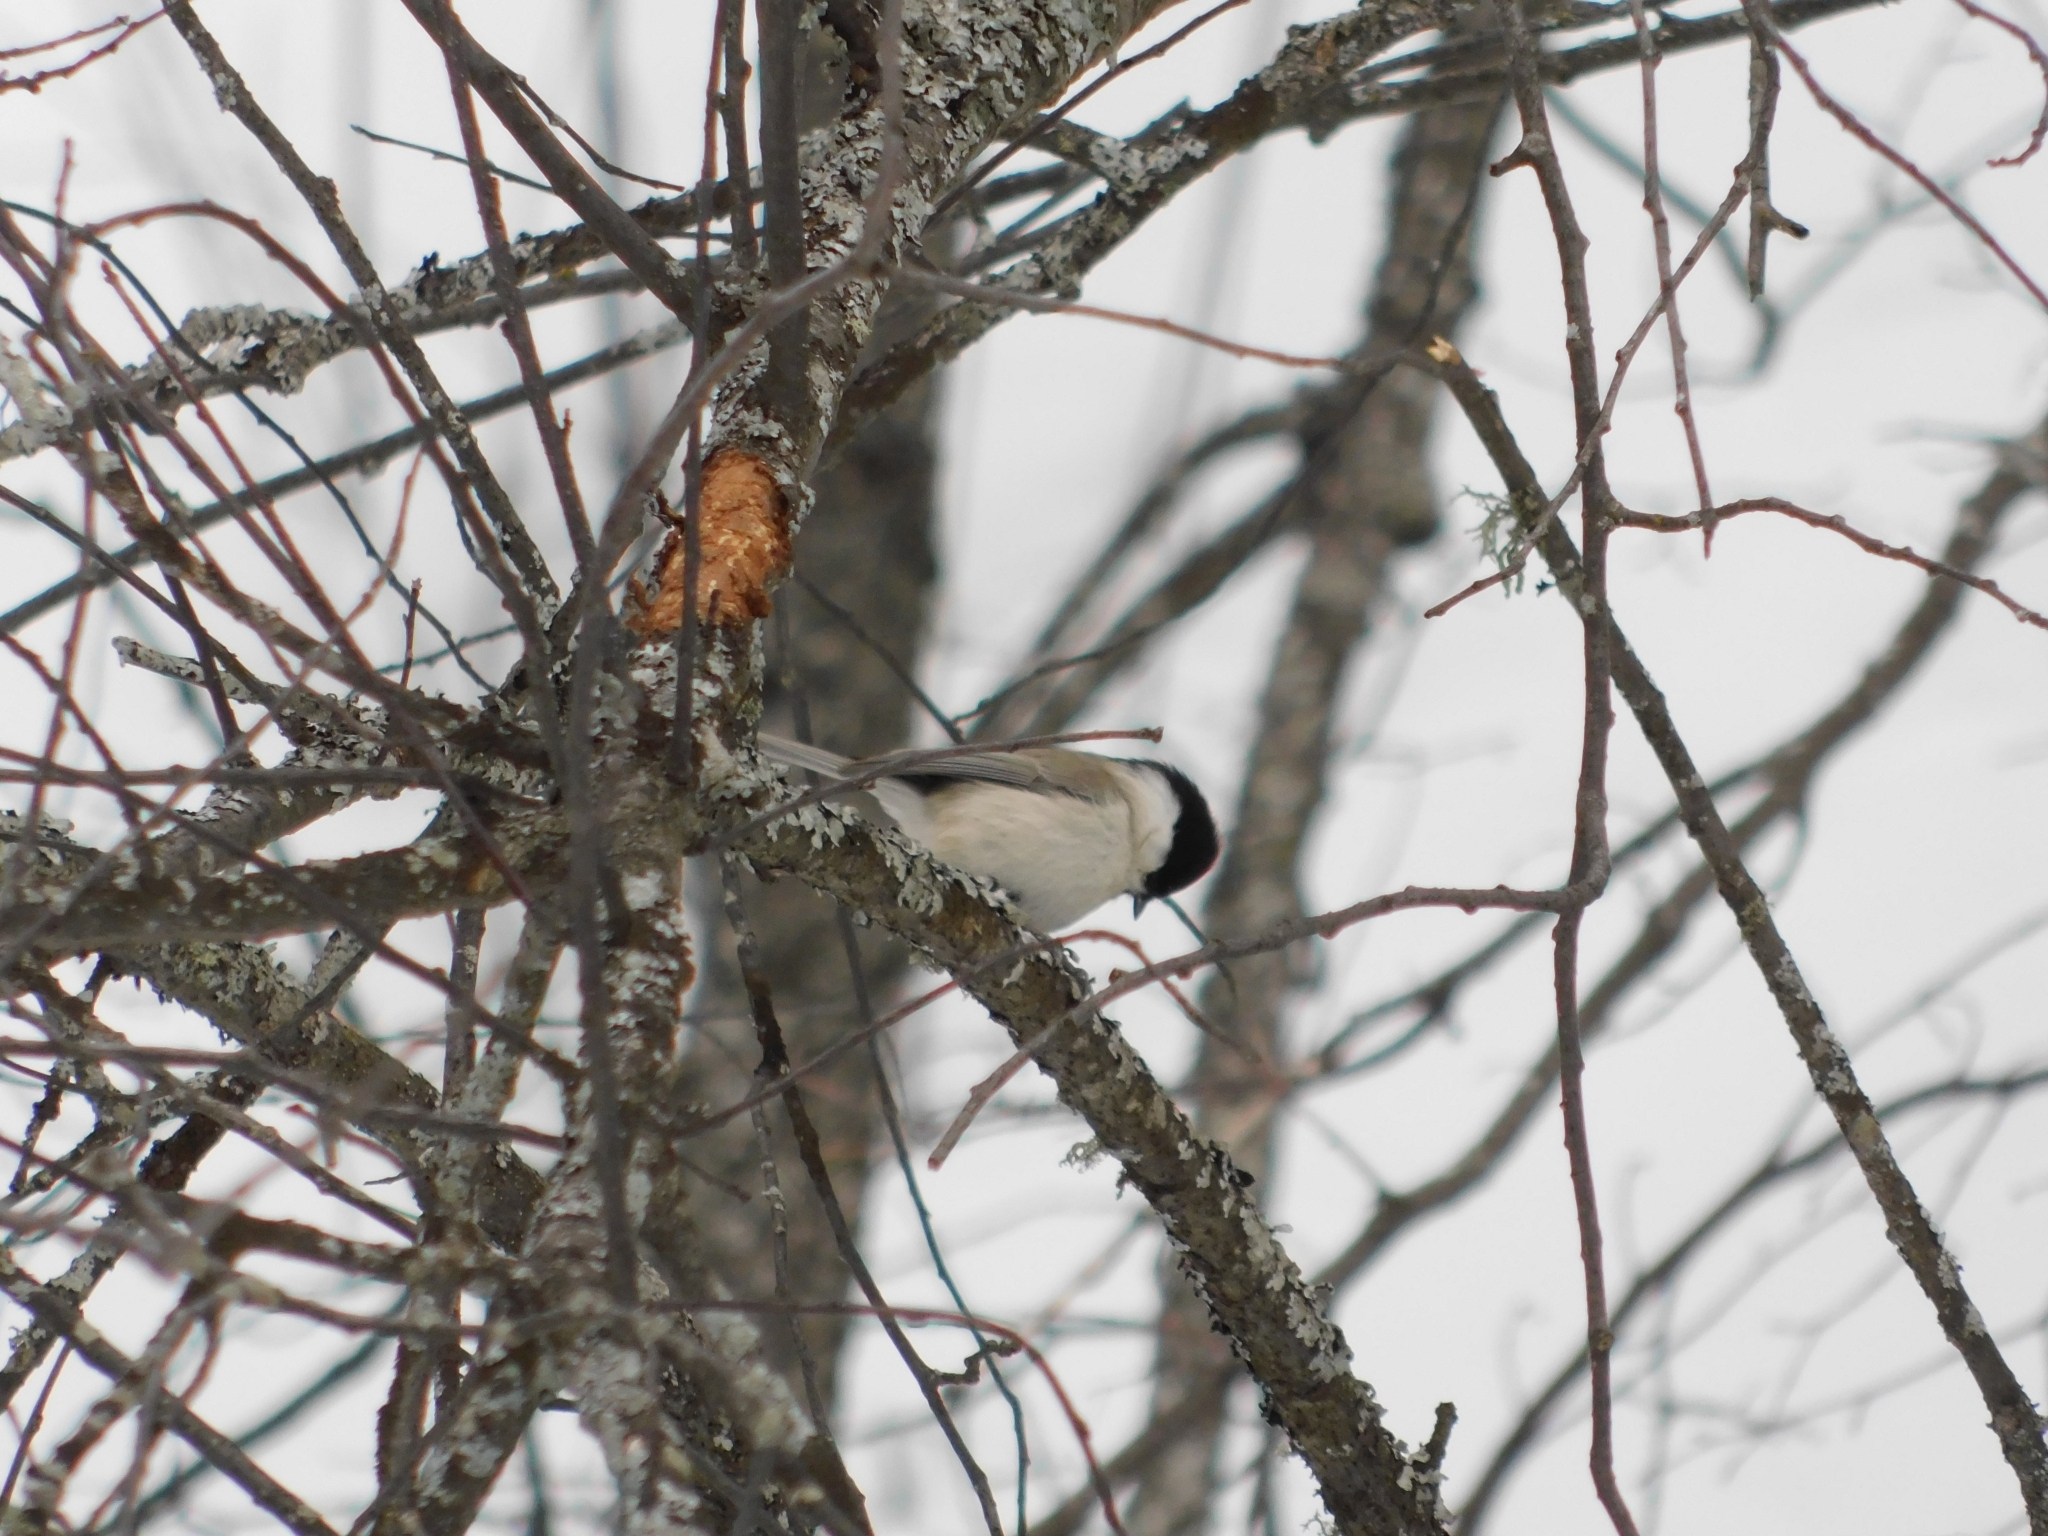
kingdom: Animalia
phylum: Chordata
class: Aves
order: Passeriformes
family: Paridae
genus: Poecile
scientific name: Poecile palustris
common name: Marsh tit
